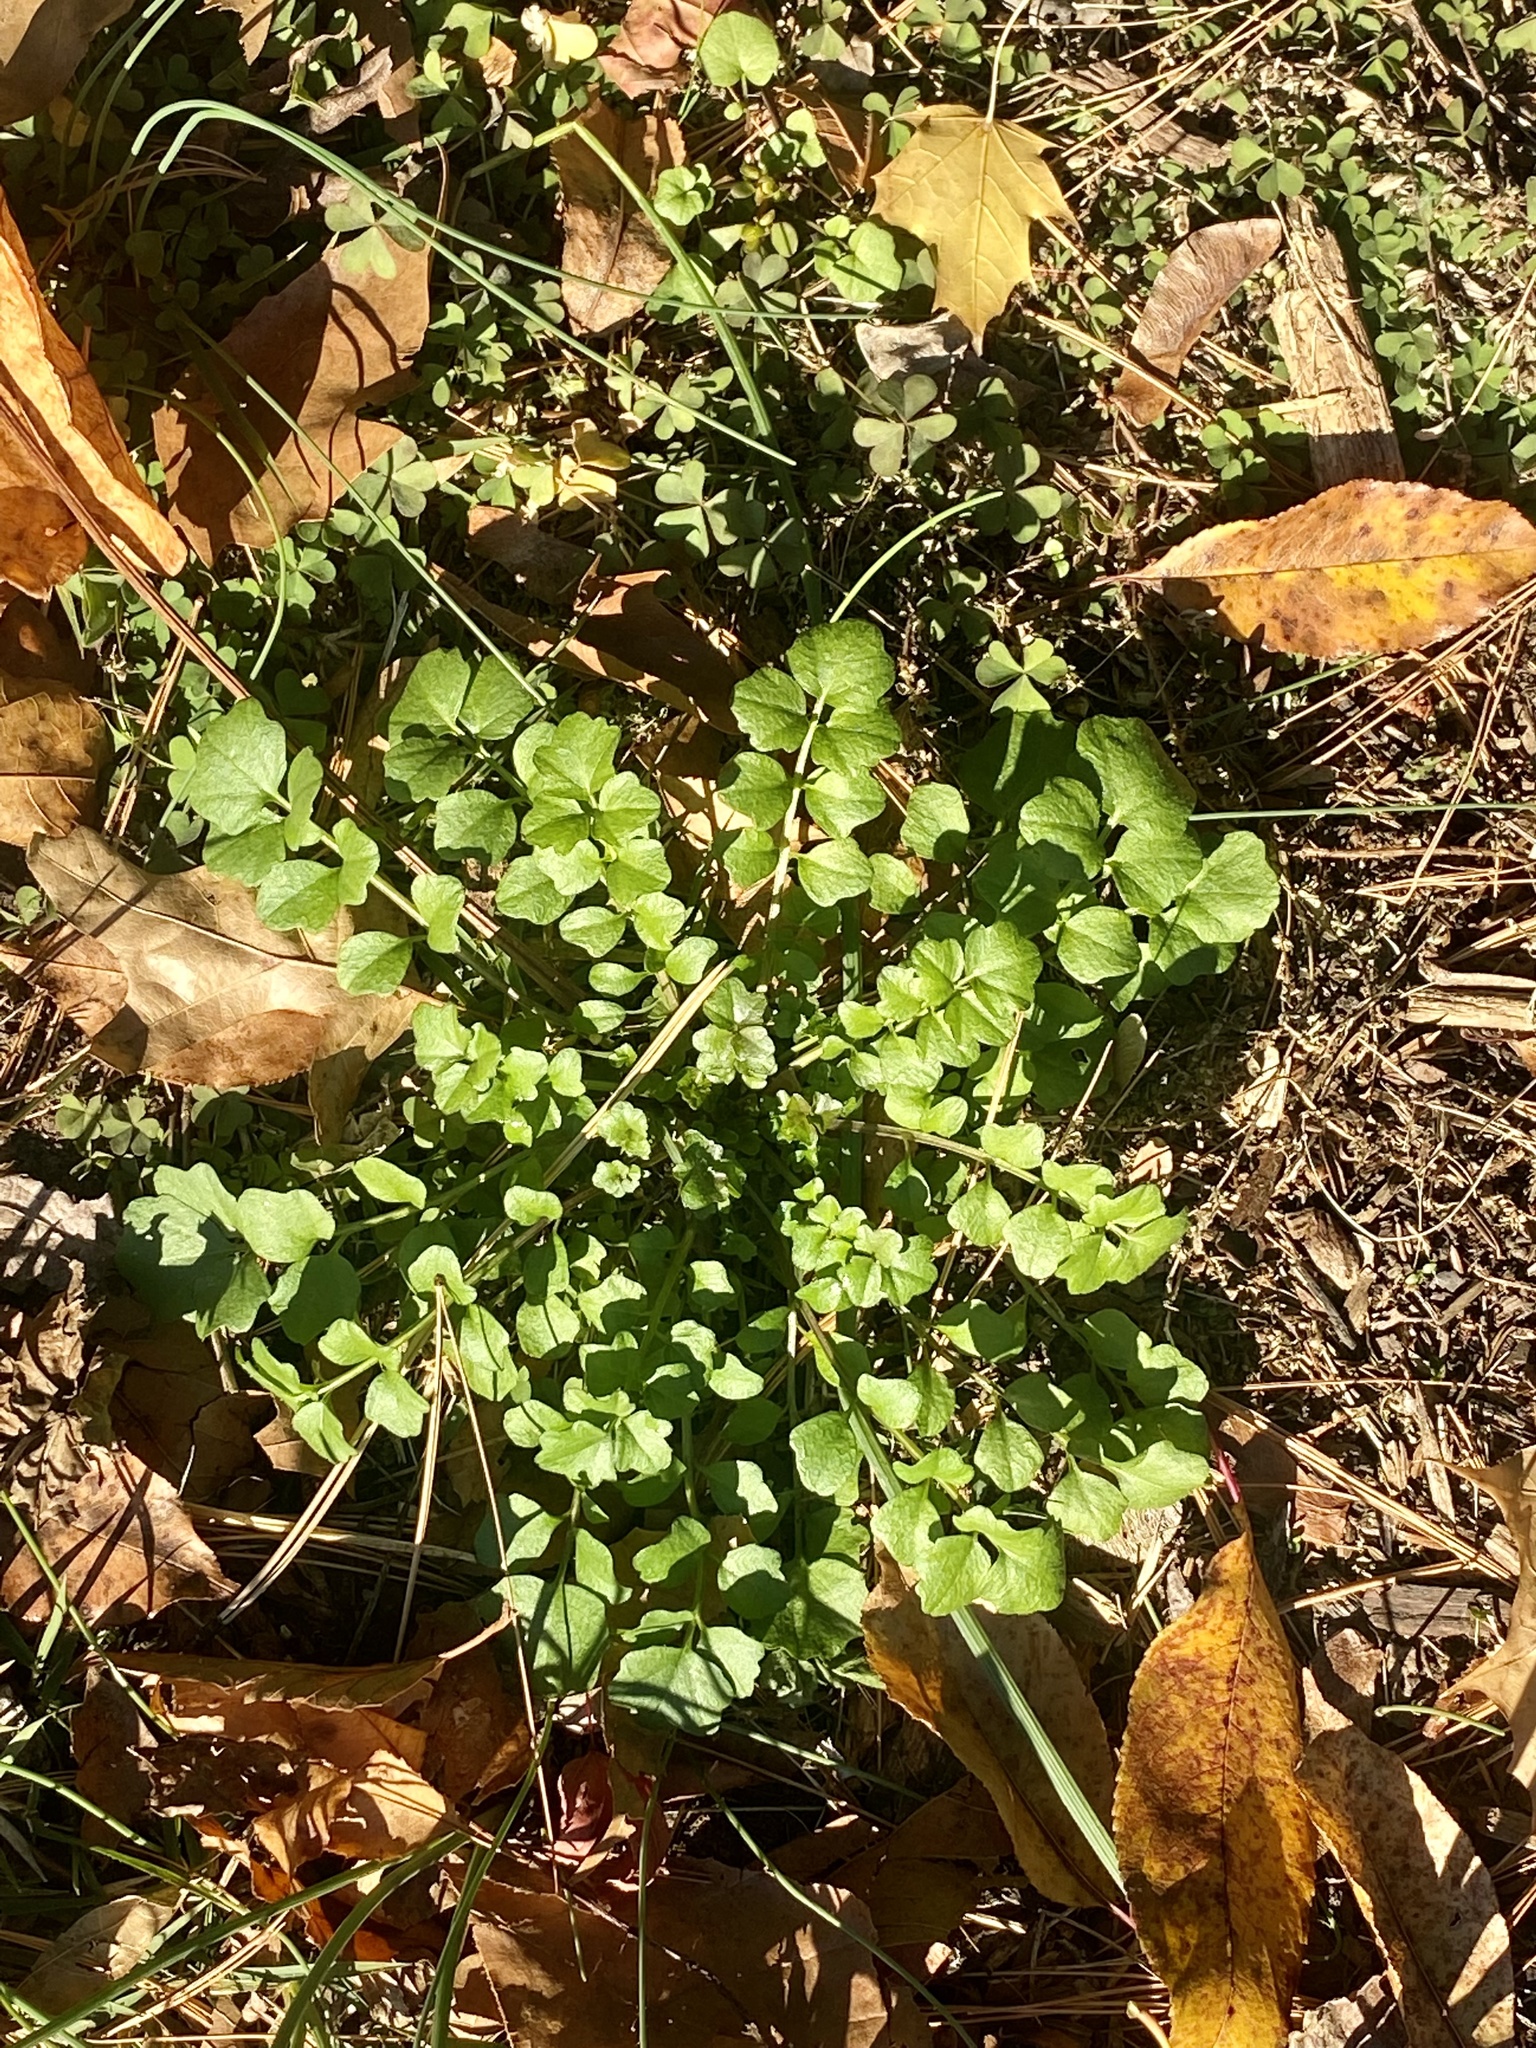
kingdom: Plantae
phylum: Tracheophyta
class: Magnoliopsida
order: Brassicales
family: Brassicaceae
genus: Cardamine
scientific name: Cardamine hirsuta
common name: Hairy bittercress
